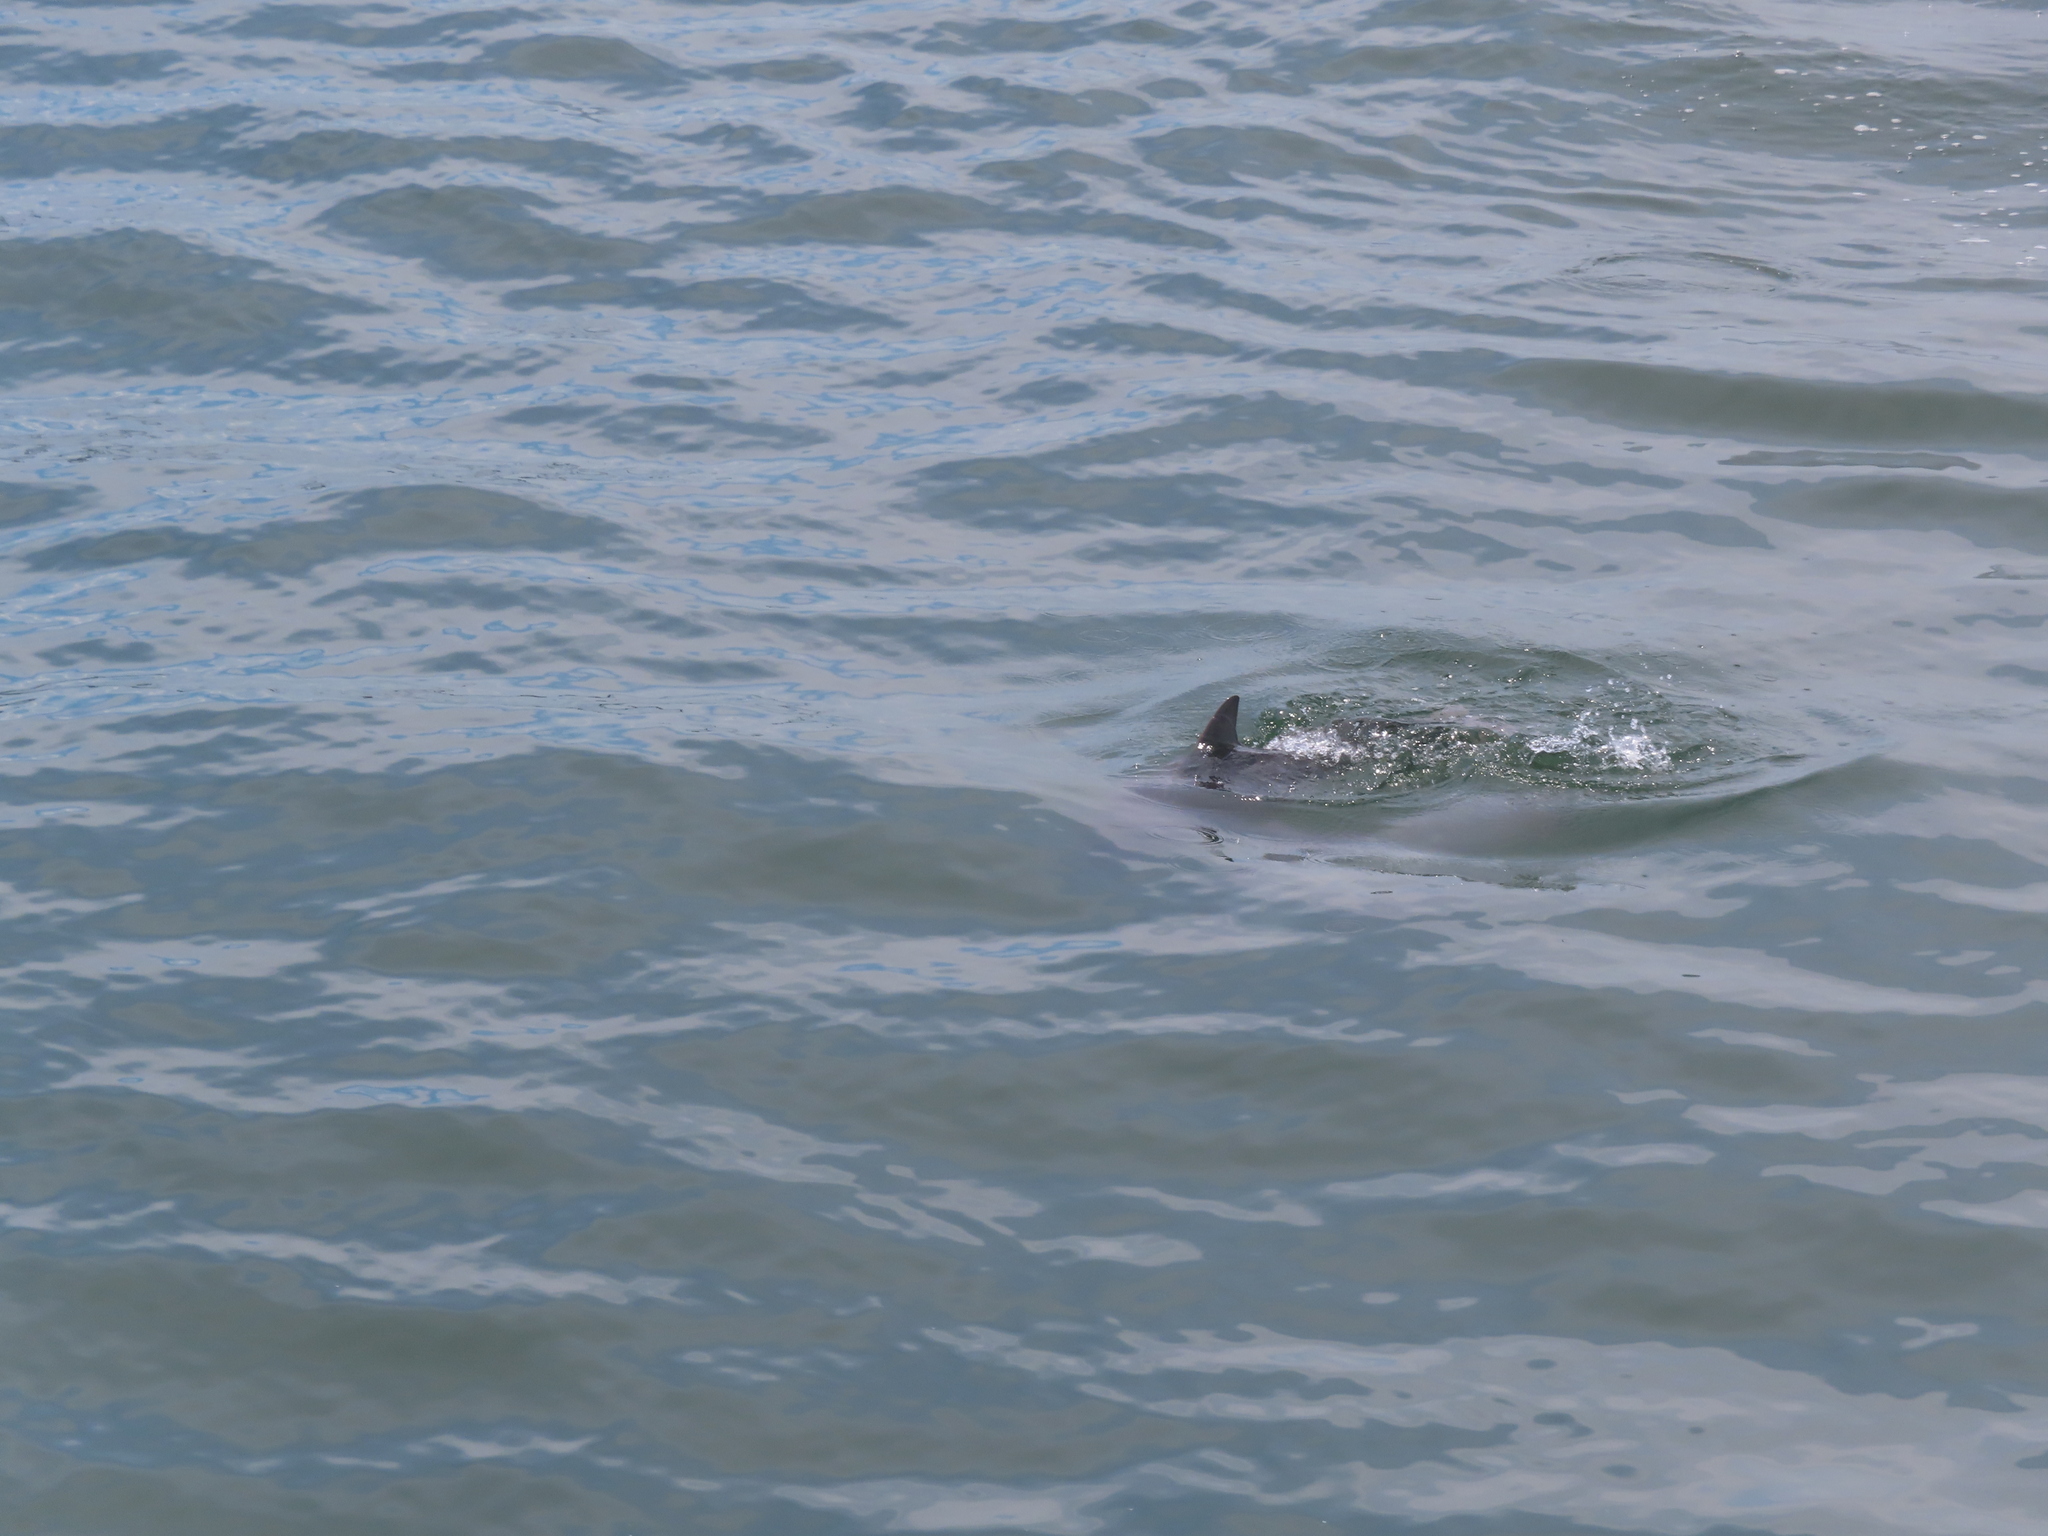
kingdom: Animalia
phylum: Chordata
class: Mammalia
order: Cetacea
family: Delphinidae
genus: Tursiops
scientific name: Tursiops truncatus
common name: Bottlenose dolphin
